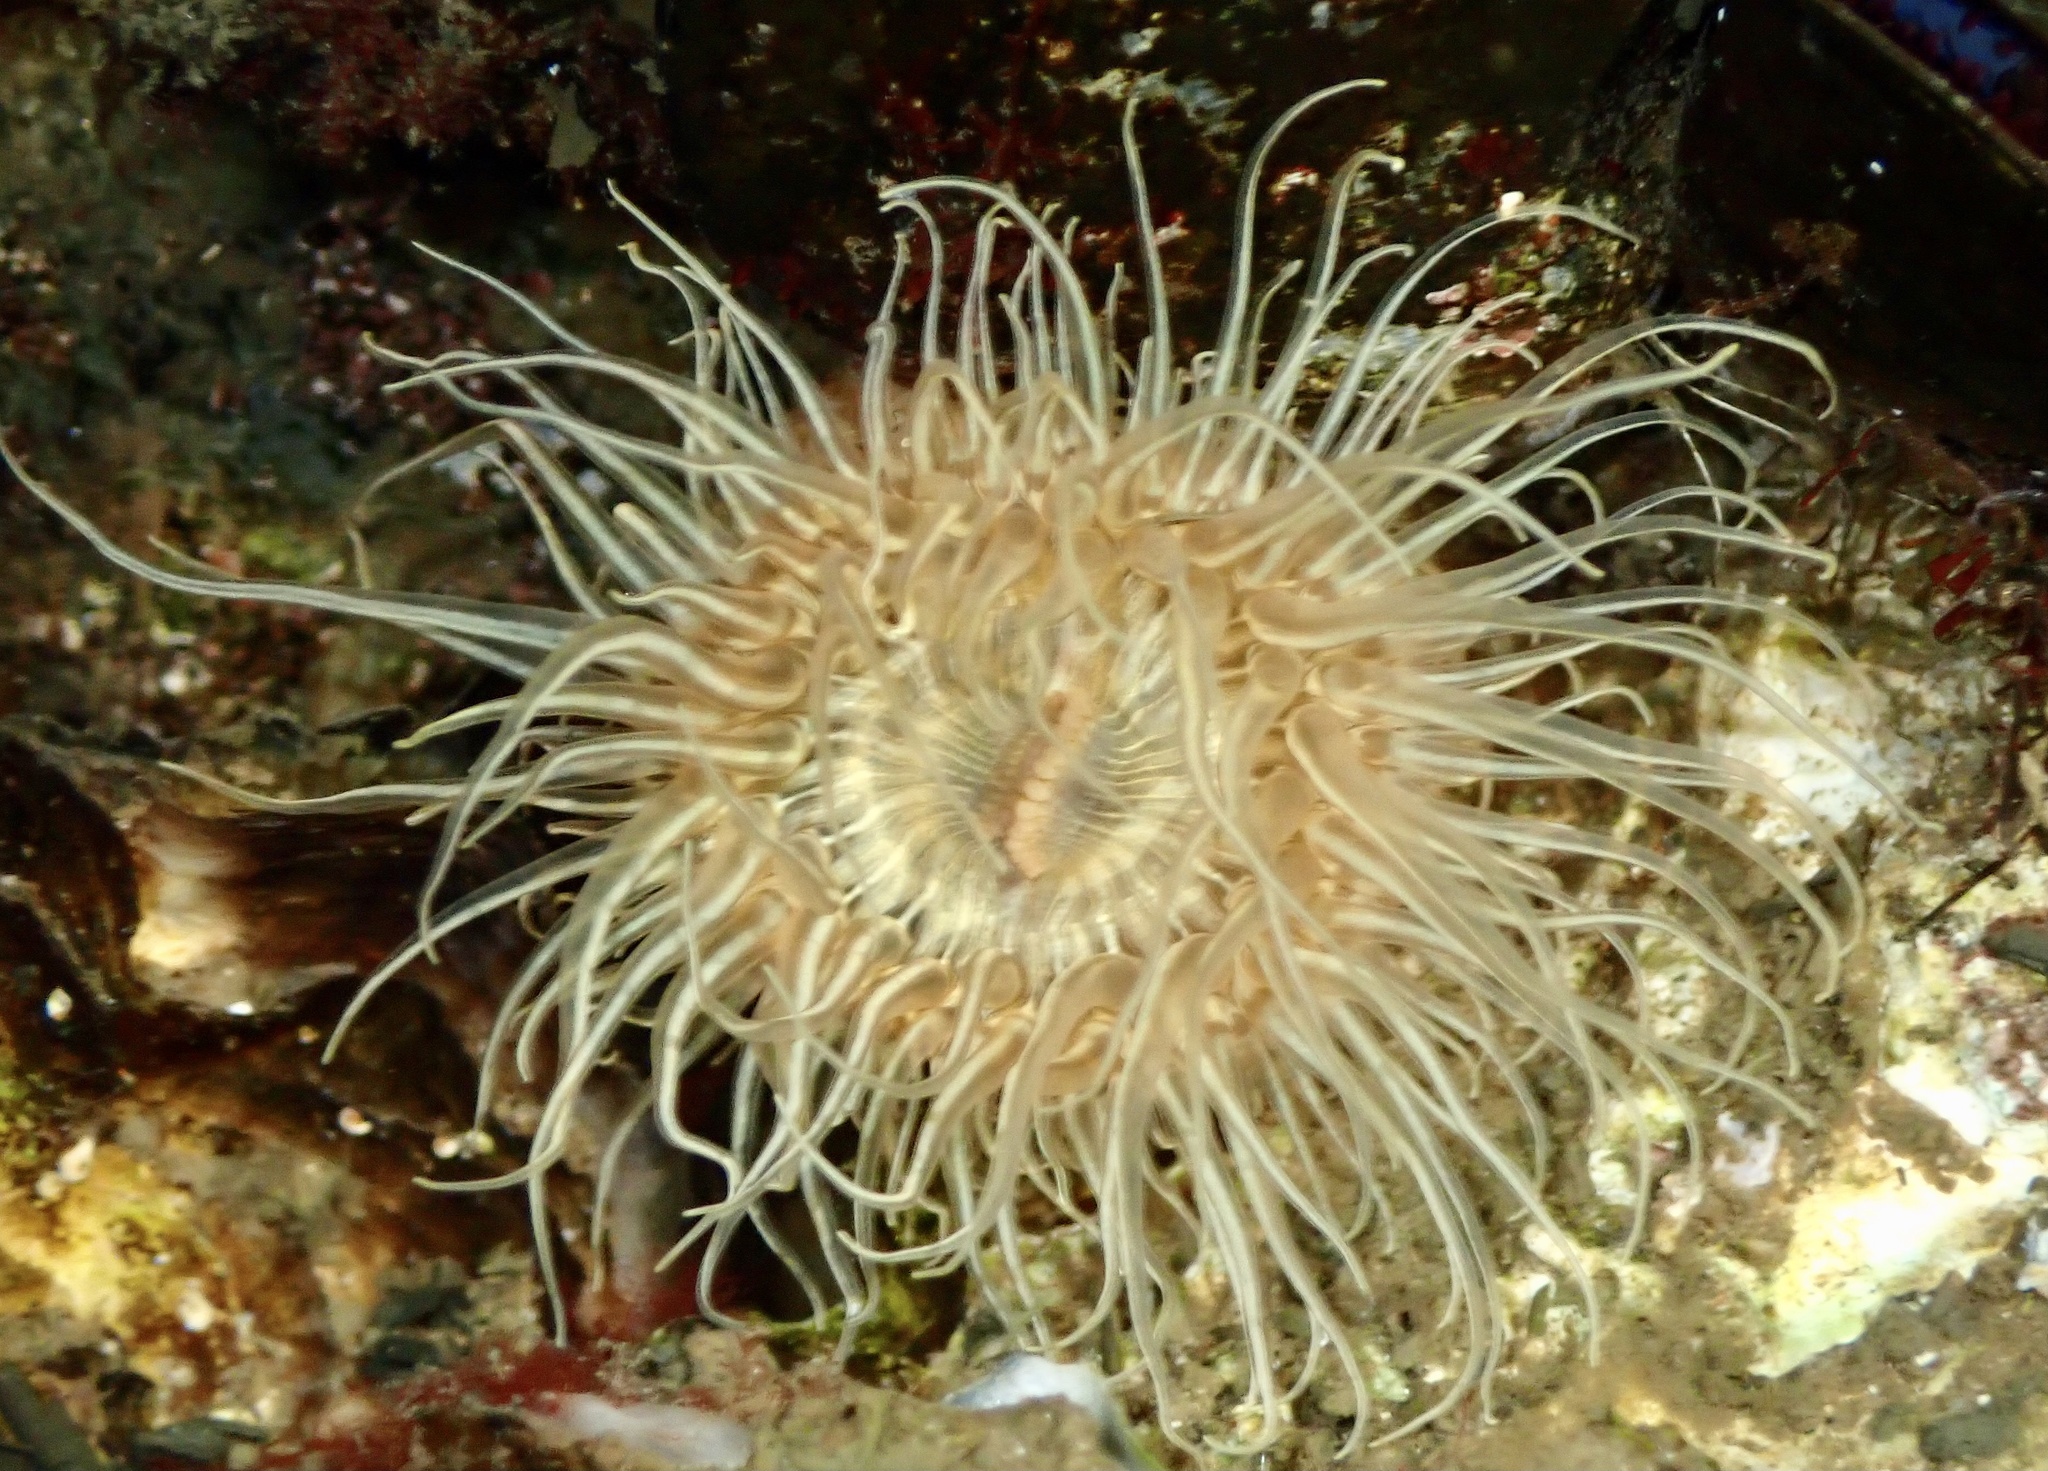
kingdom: Animalia
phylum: Cnidaria
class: Anthozoa
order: Actiniaria
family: Sagartiidae
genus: Sagartia
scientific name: Sagartia undata
